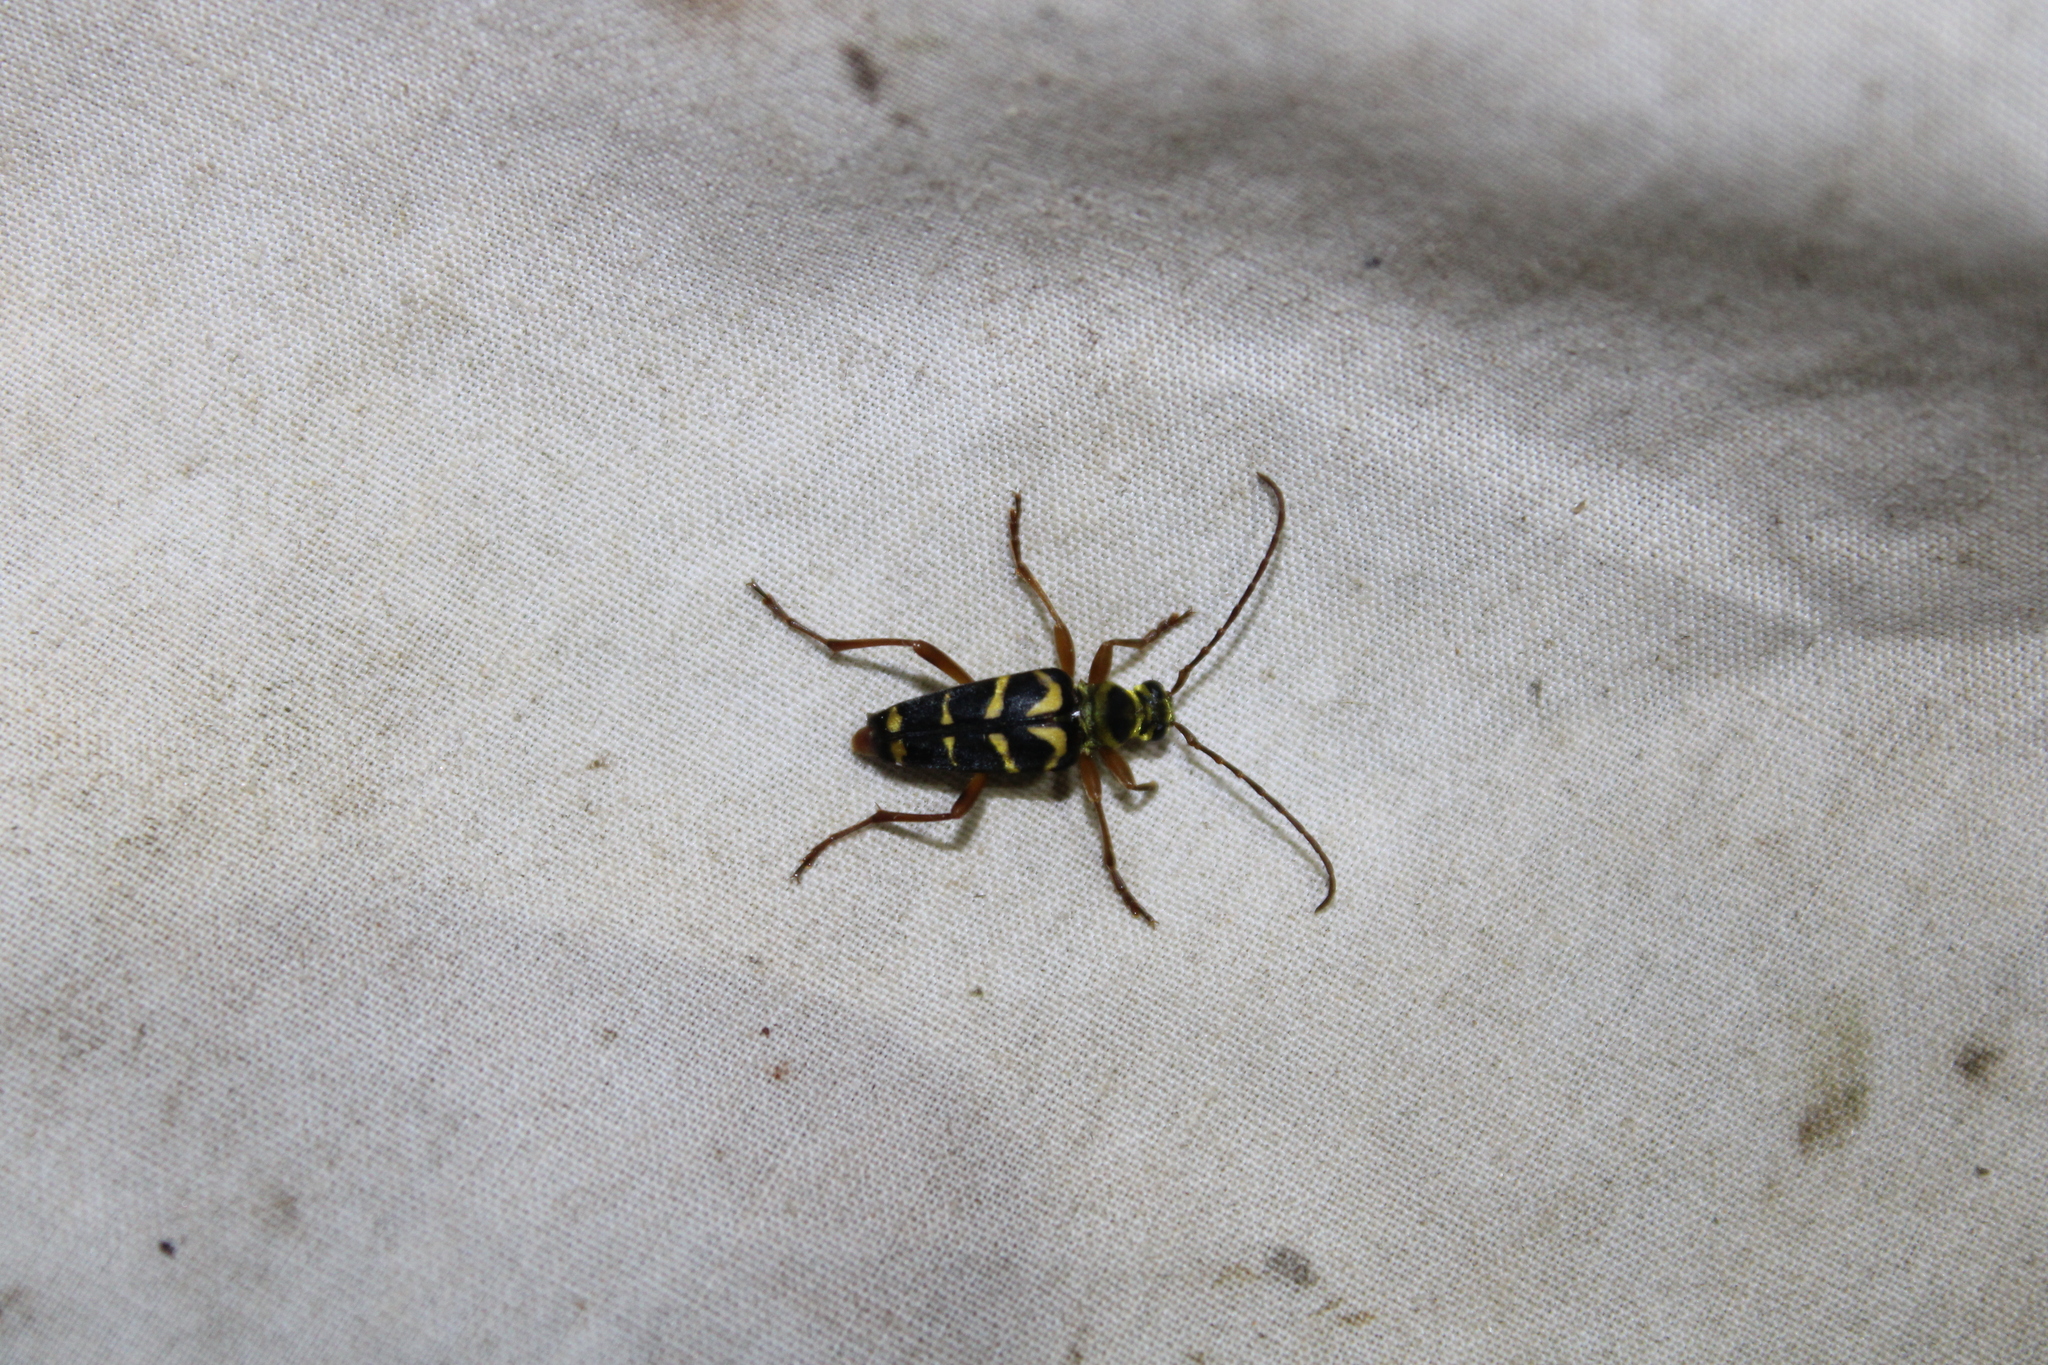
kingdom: Animalia
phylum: Arthropoda
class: Insecta
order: Coleoptera
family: Cerambycidae
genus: Strophiona
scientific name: Strophiona nitens
